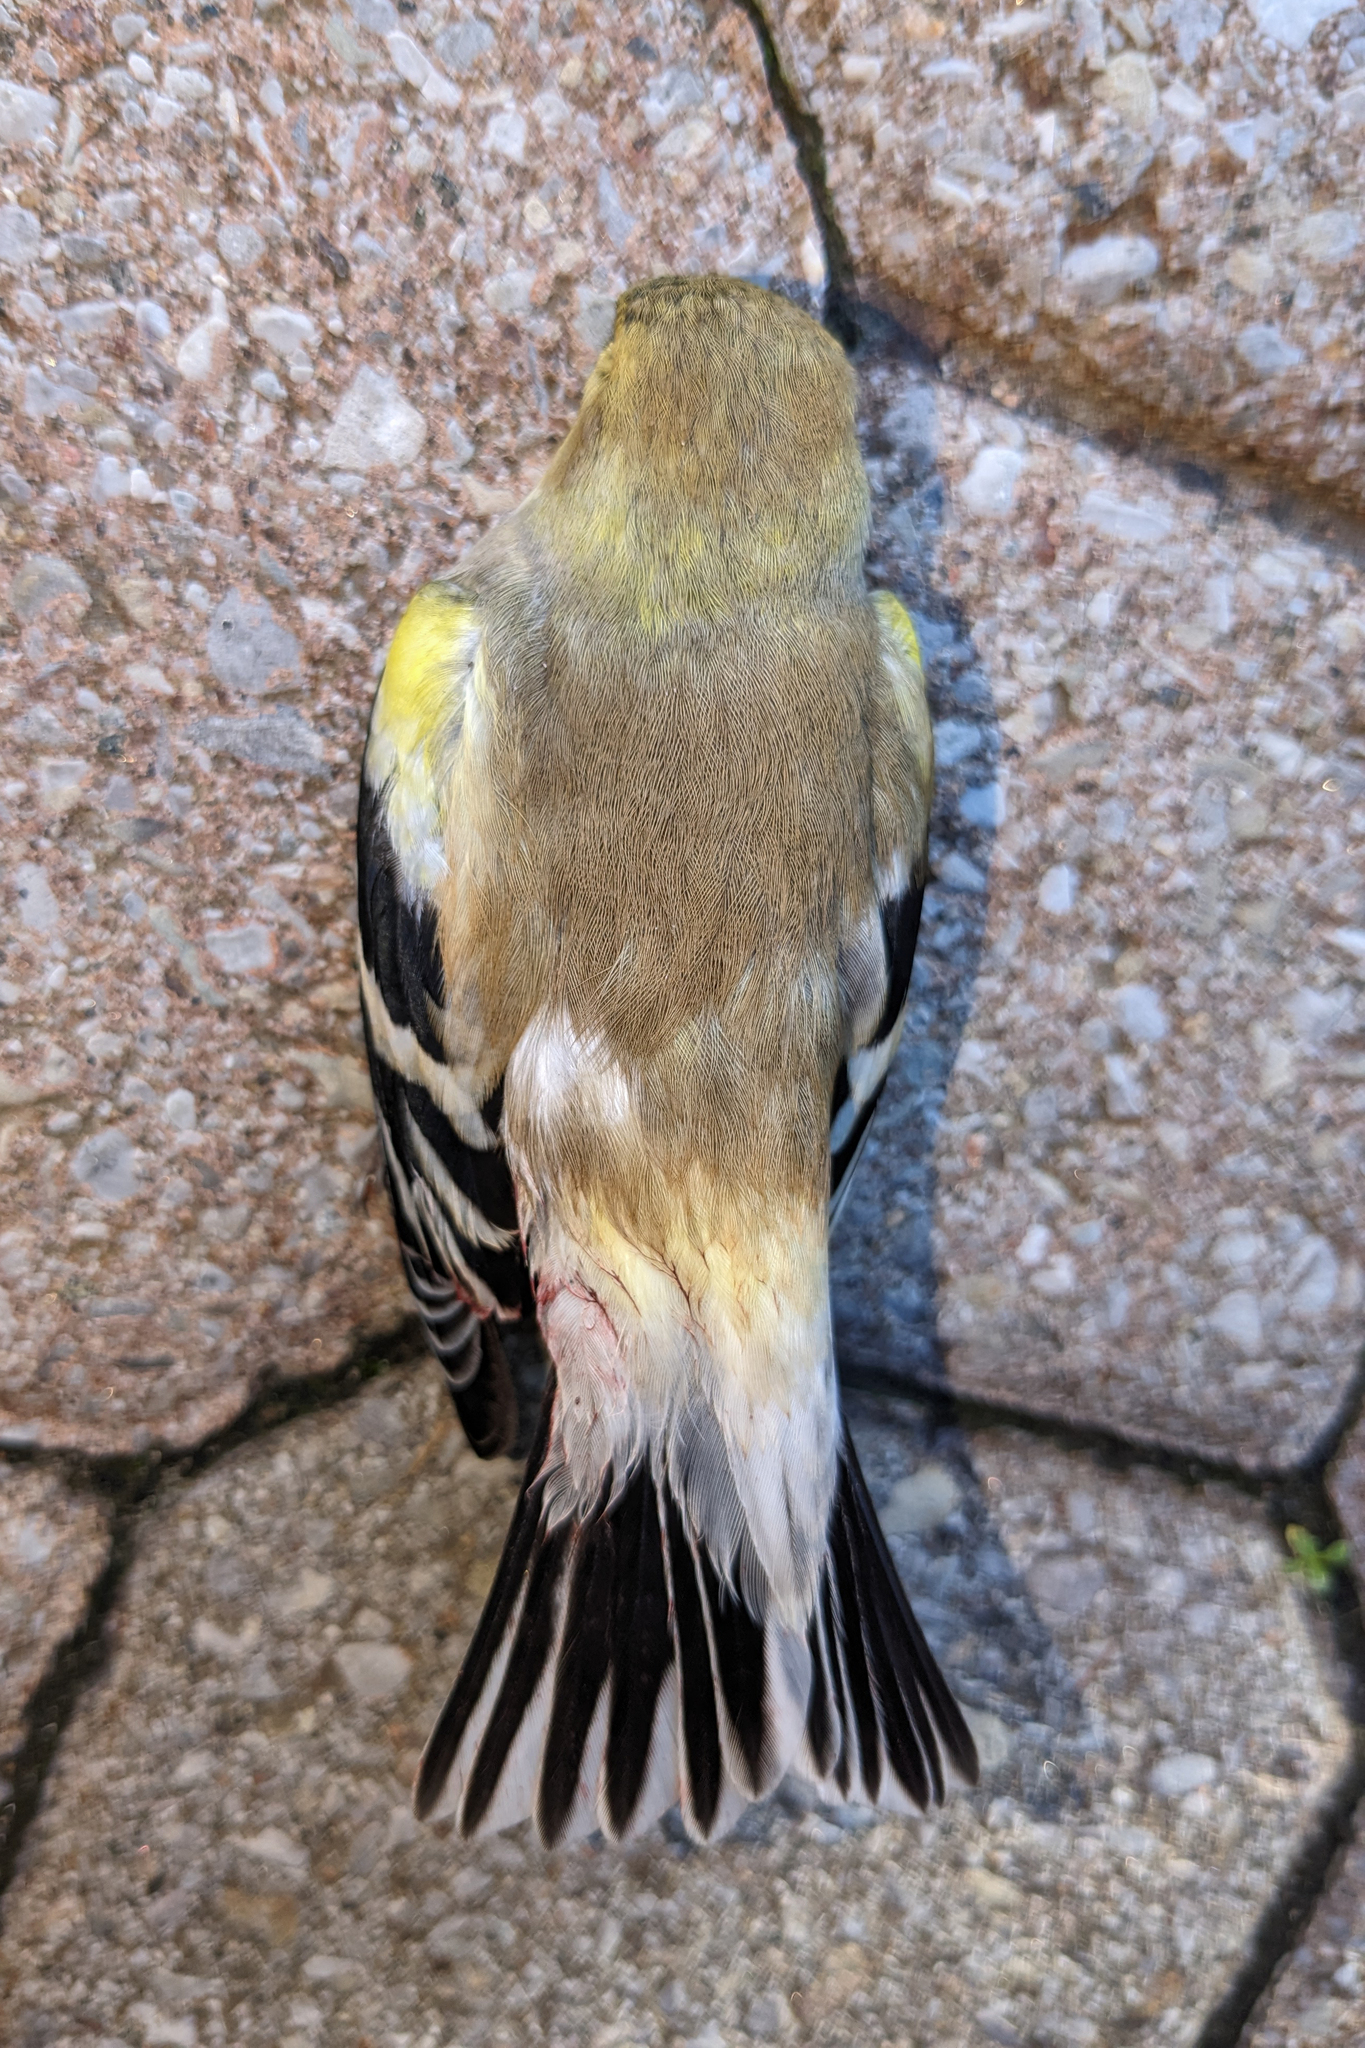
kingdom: Animalia
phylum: Chordata
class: Aves
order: Passeriformes
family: Fringillidae
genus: Spinus
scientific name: Spinus tristis
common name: American goldfinch
